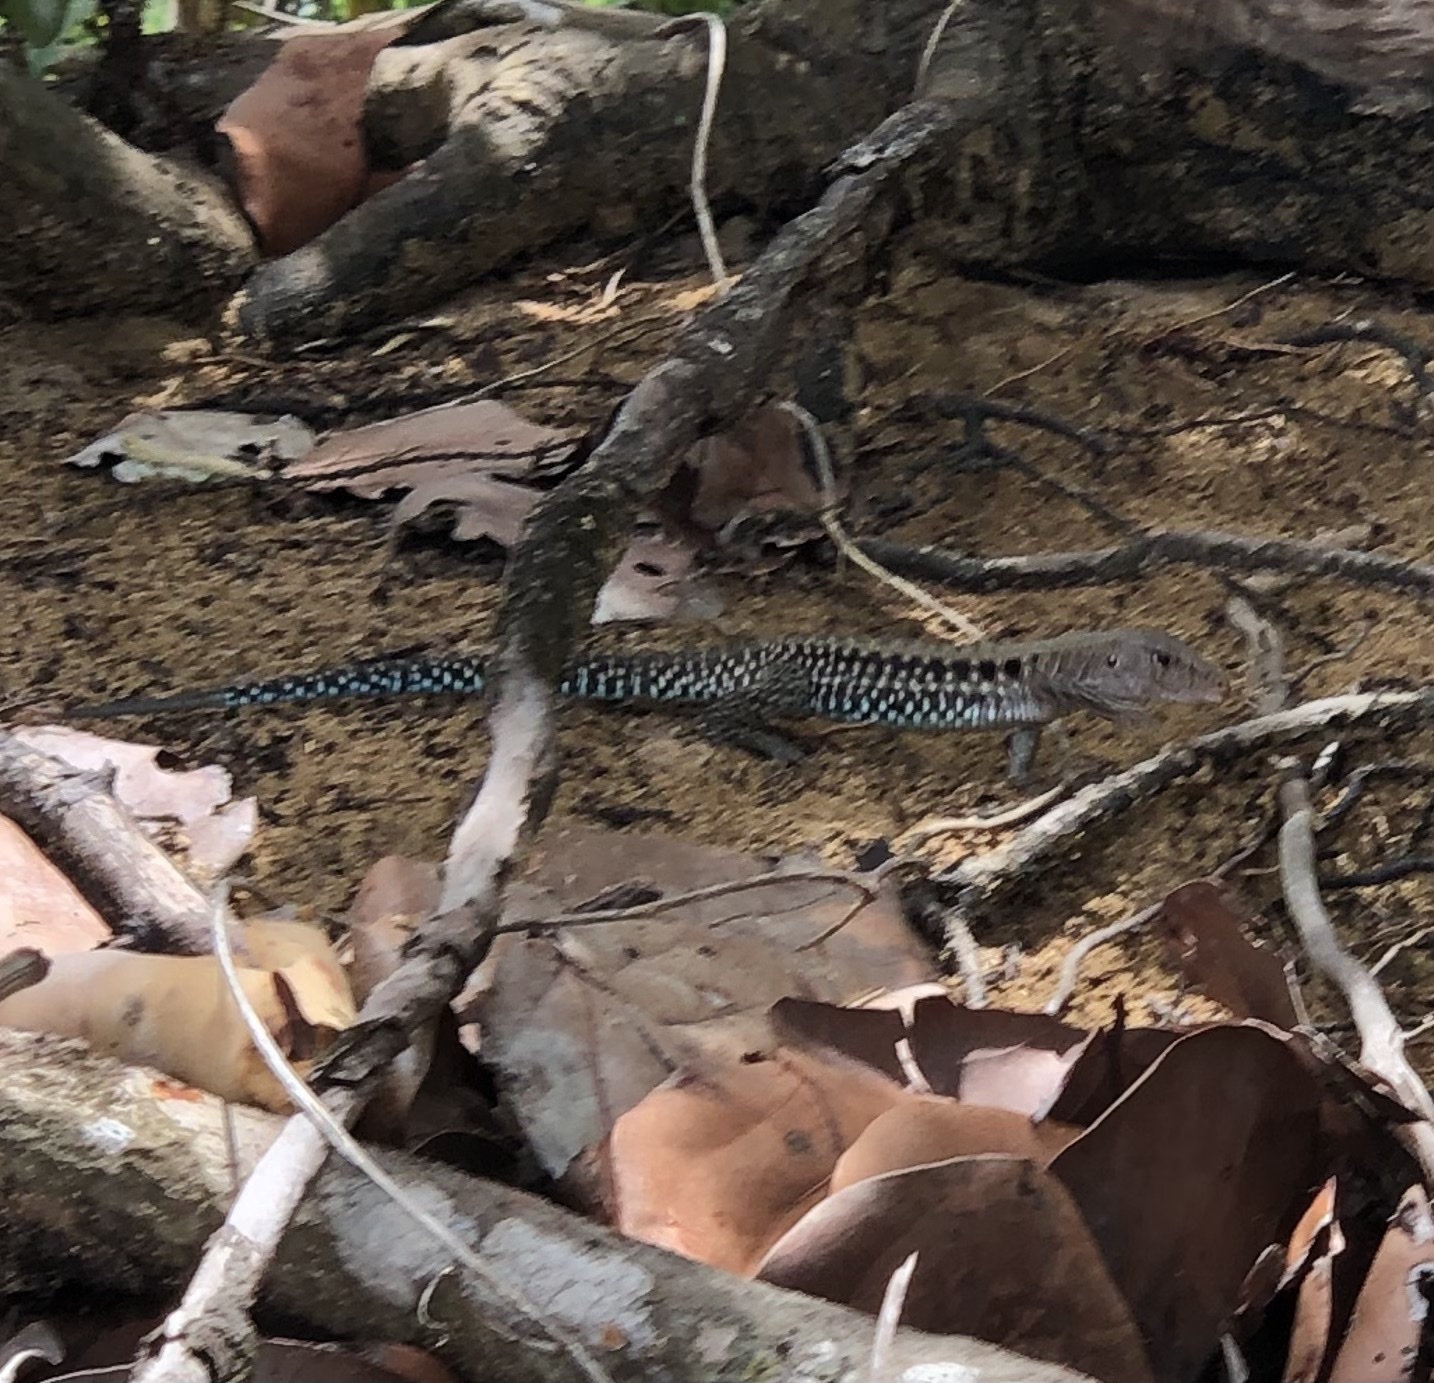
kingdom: Animalia
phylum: Chordata
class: Squamata
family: Teiidae
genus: Pholidoscelis
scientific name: Pholidoscelis exsul
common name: Common puerto rican ameiva
